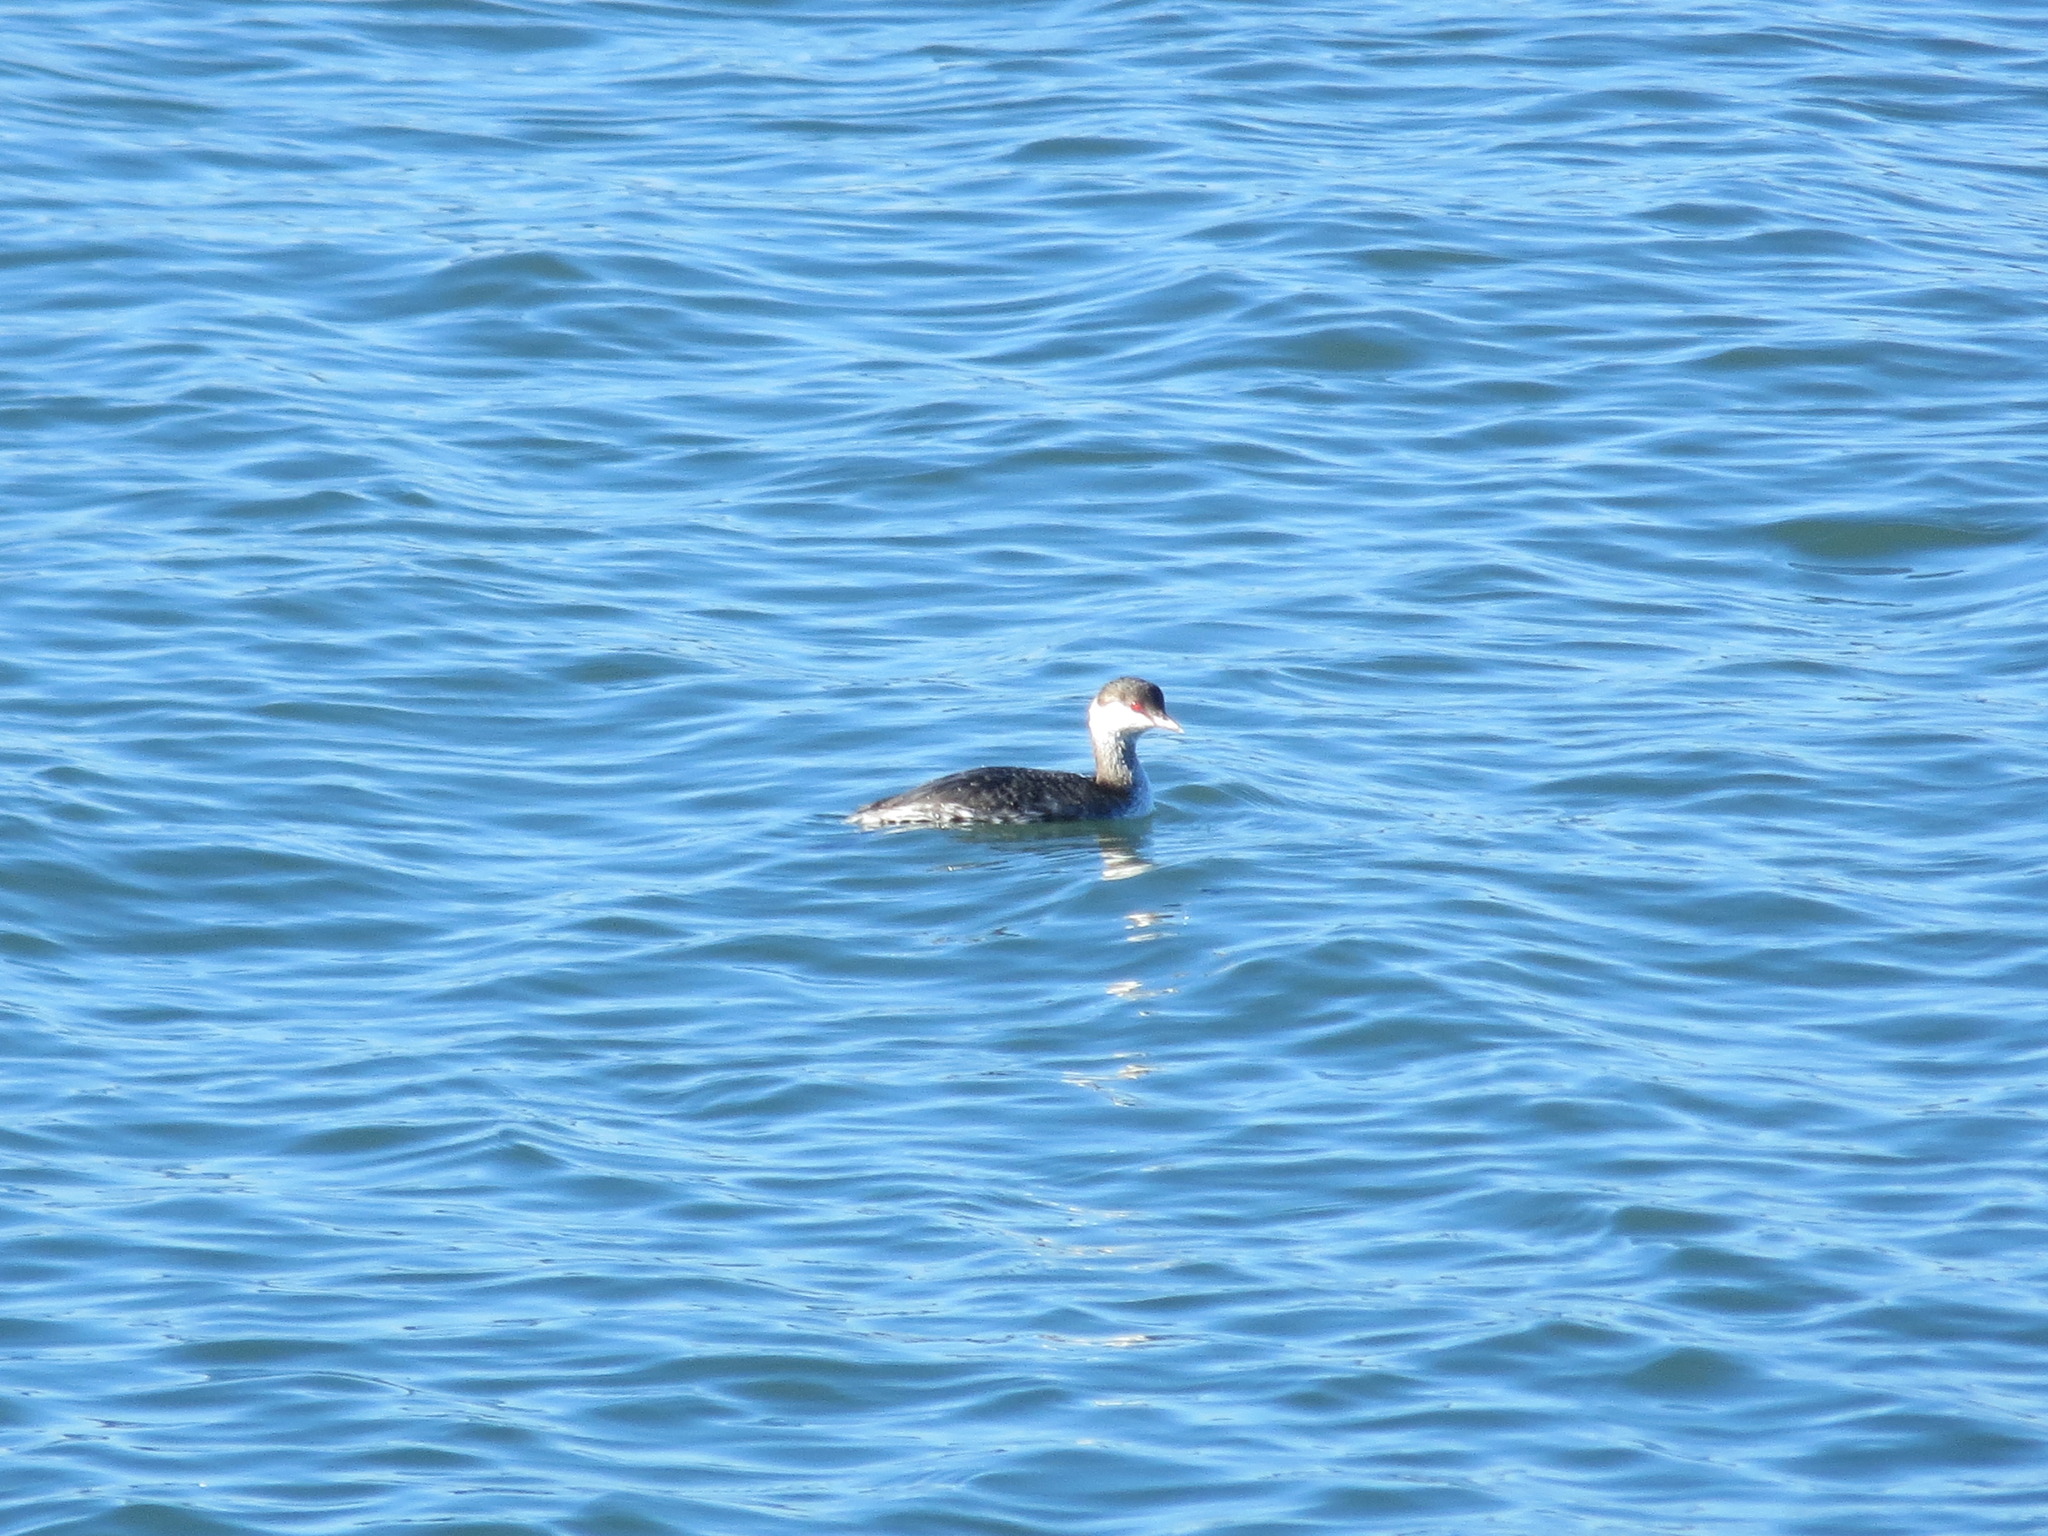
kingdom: Animalia
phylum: Chordata
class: Aves
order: Podicipediformes
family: Podicipedidae
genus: Podiceps
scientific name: Podiceps auritus
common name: Horned grebe
